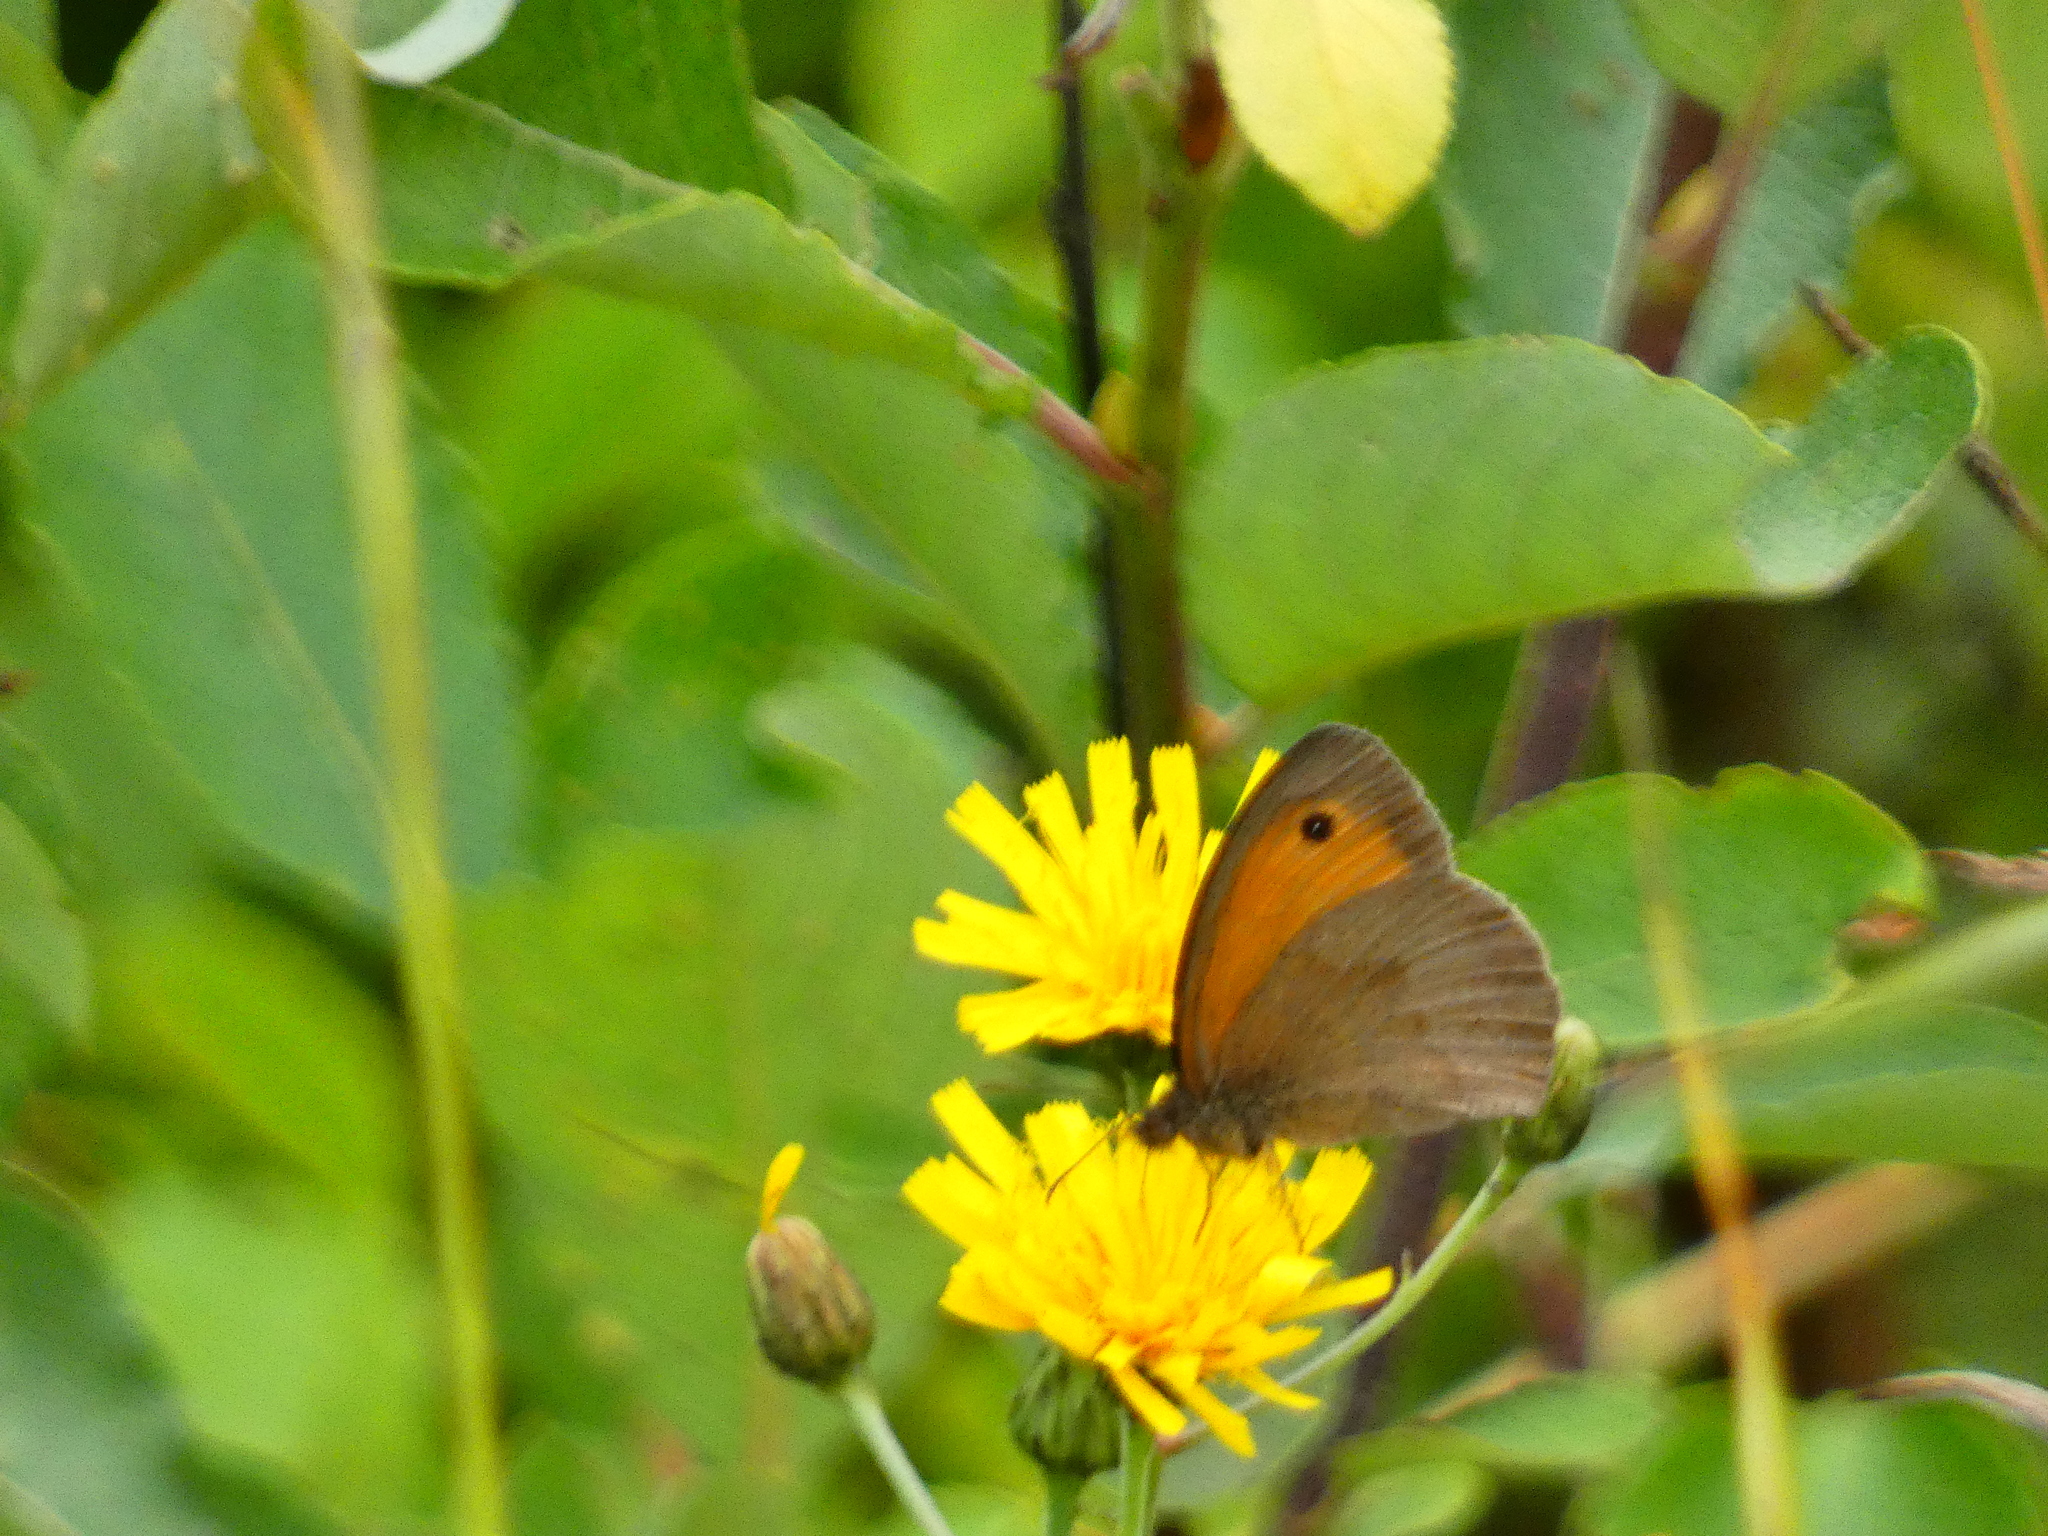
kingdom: Animalia
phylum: Arthropoda
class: Insecta
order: Lepidoptera
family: Nymphalidae
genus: Maniola
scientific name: Maniola jurtina
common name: Meadow brown
